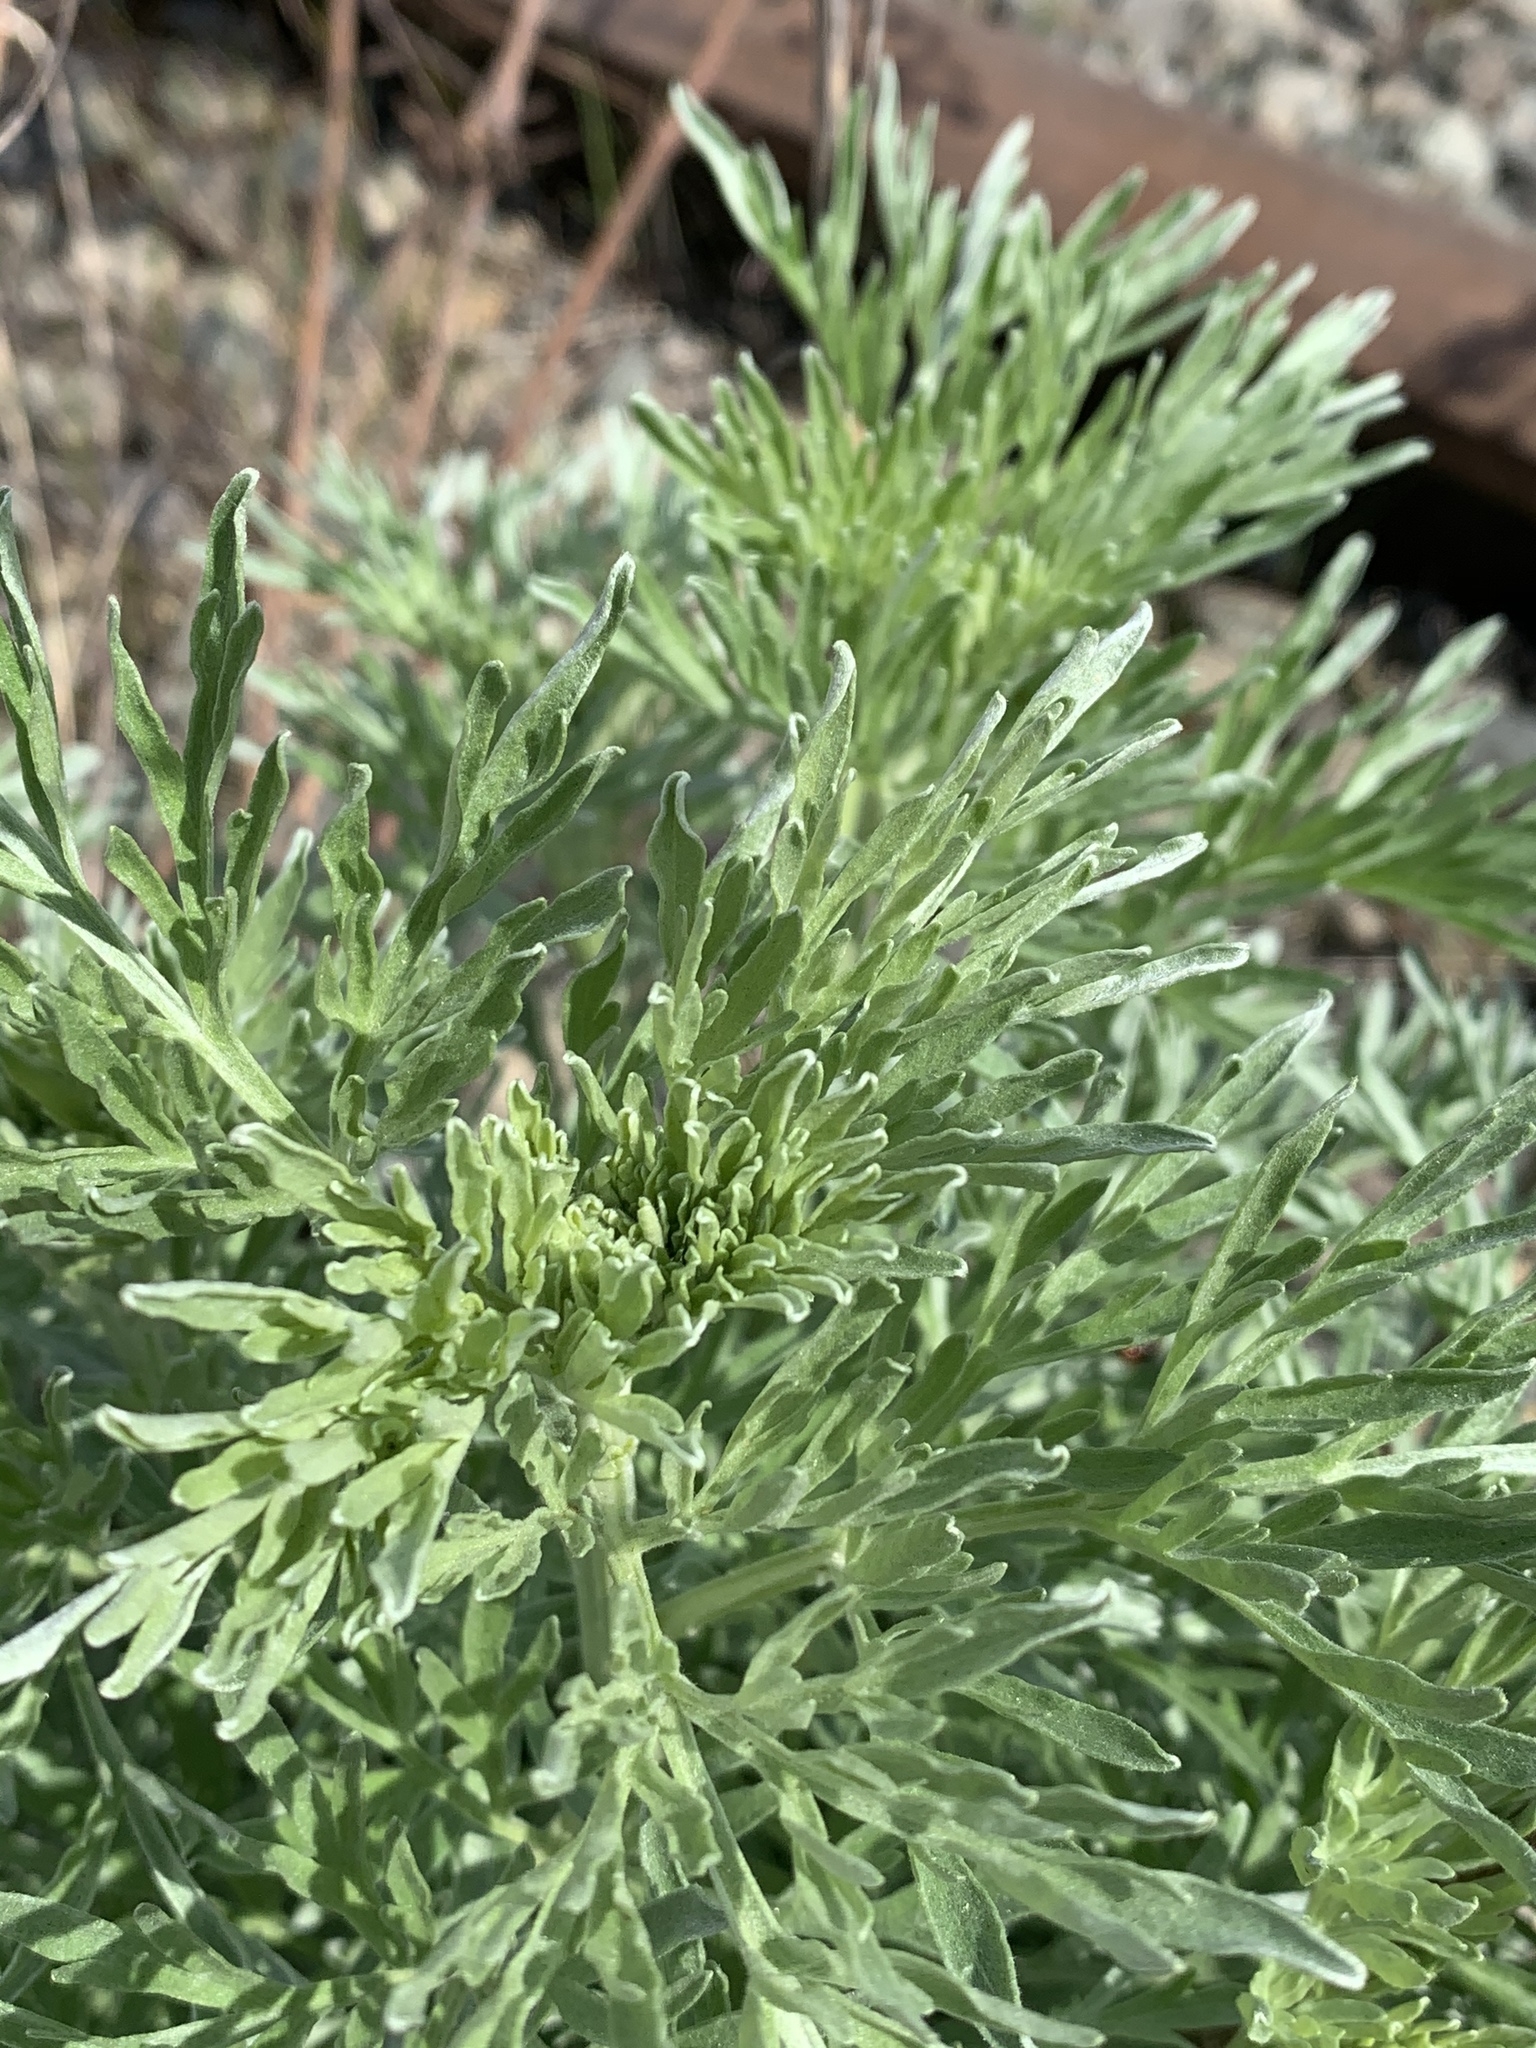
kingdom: Plantae
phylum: Tracheophyta
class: Magnoliopsida
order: Asterales
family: Asteraceae
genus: Artemisia
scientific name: Artemisia absinthium
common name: Wormwood
